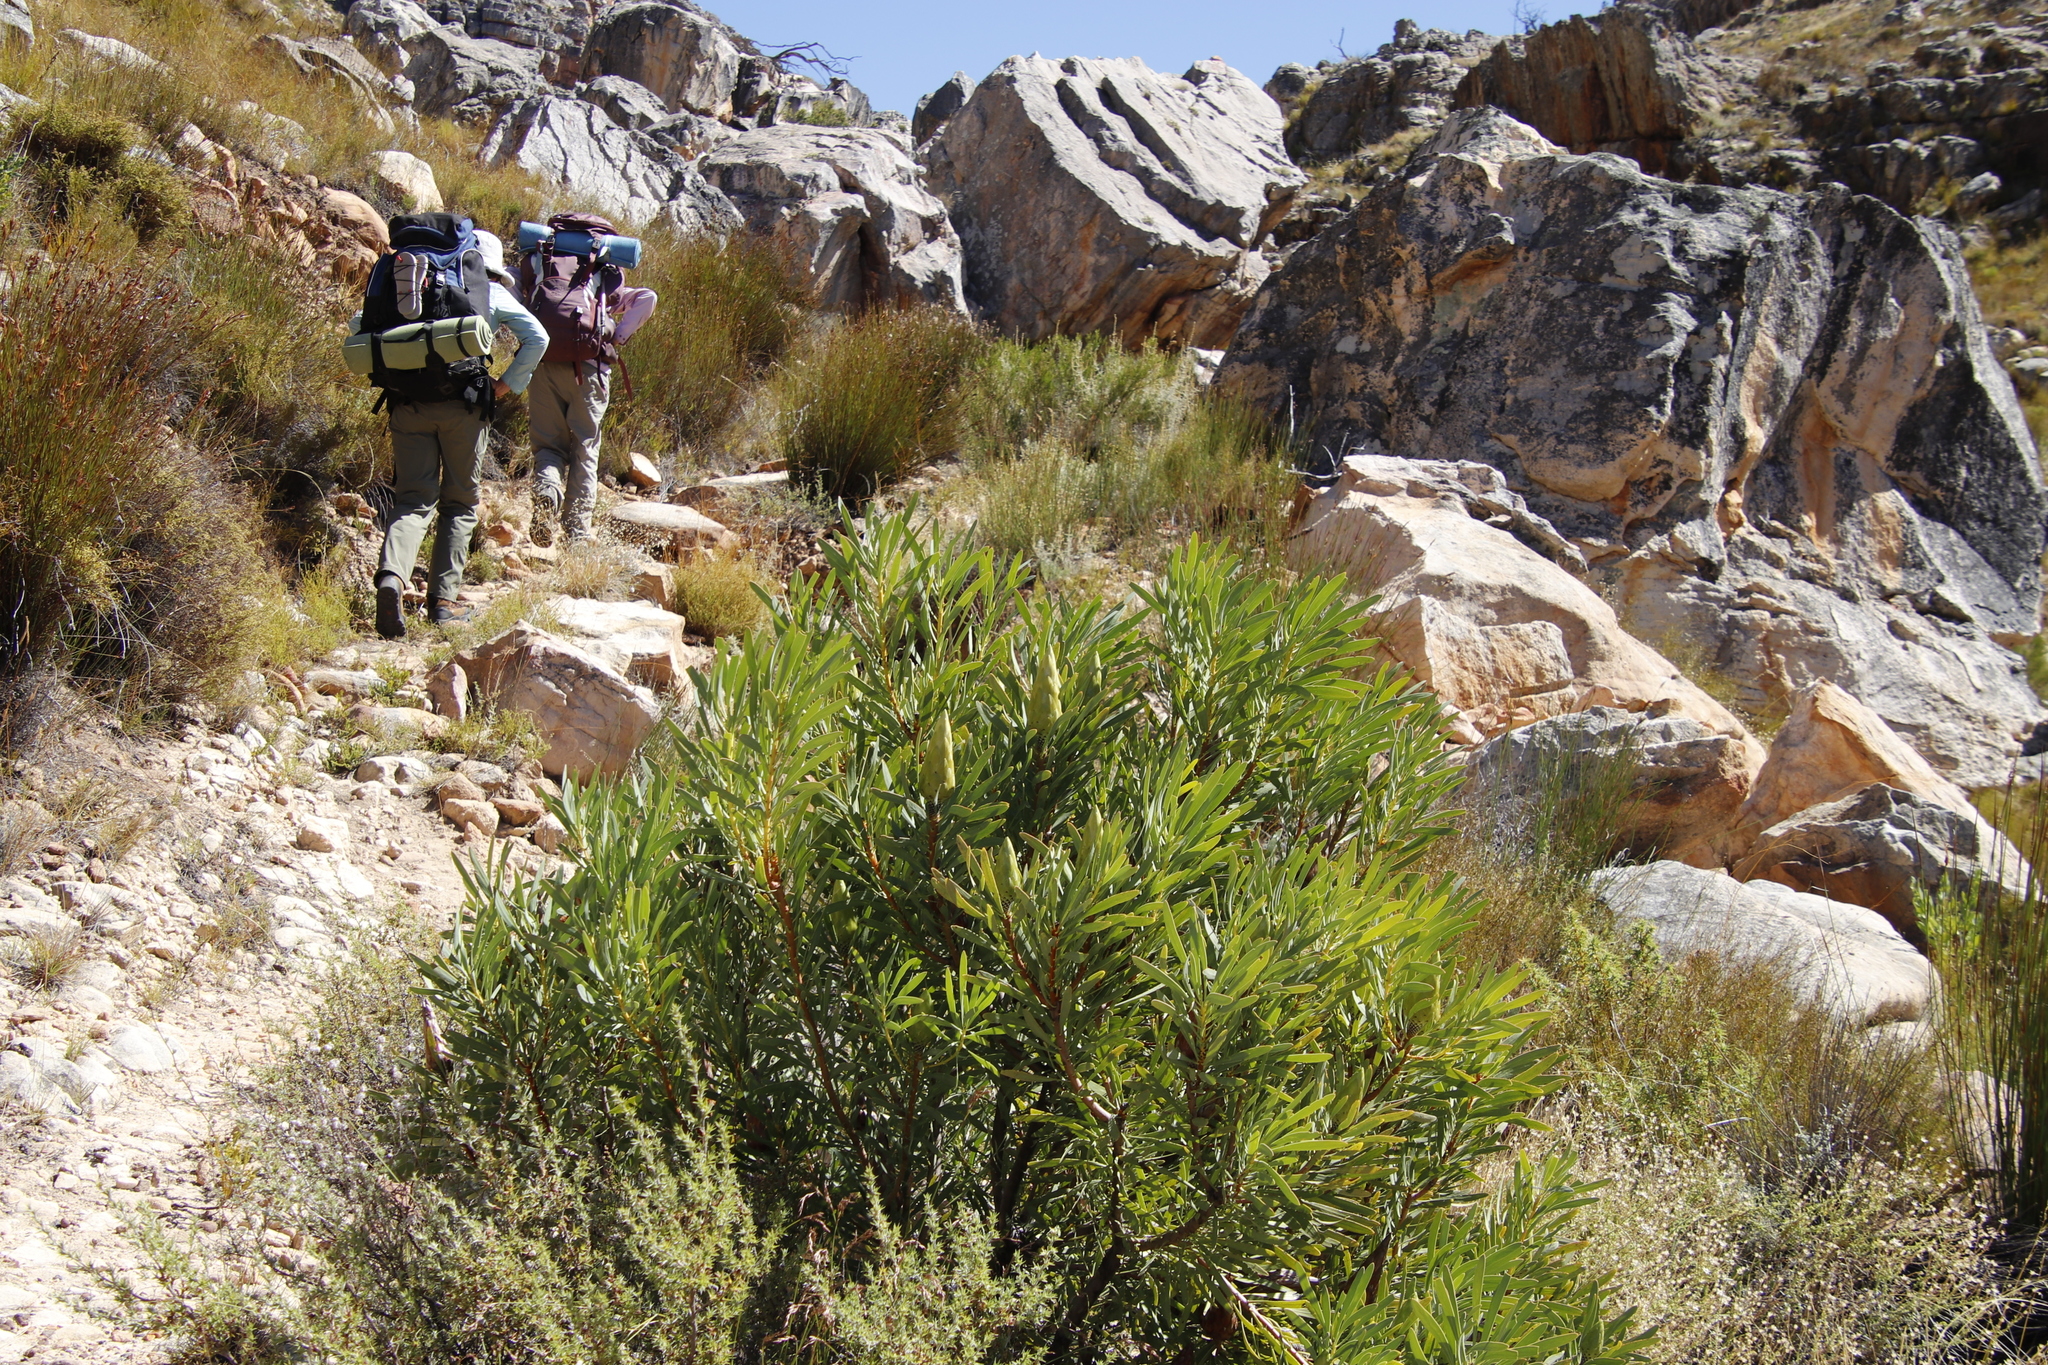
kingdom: Plantae
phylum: Tracheophyta
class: Magnoliopsida
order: Proteales
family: Proteaceae
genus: Protea
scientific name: Protea repens
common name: Sugarbush
